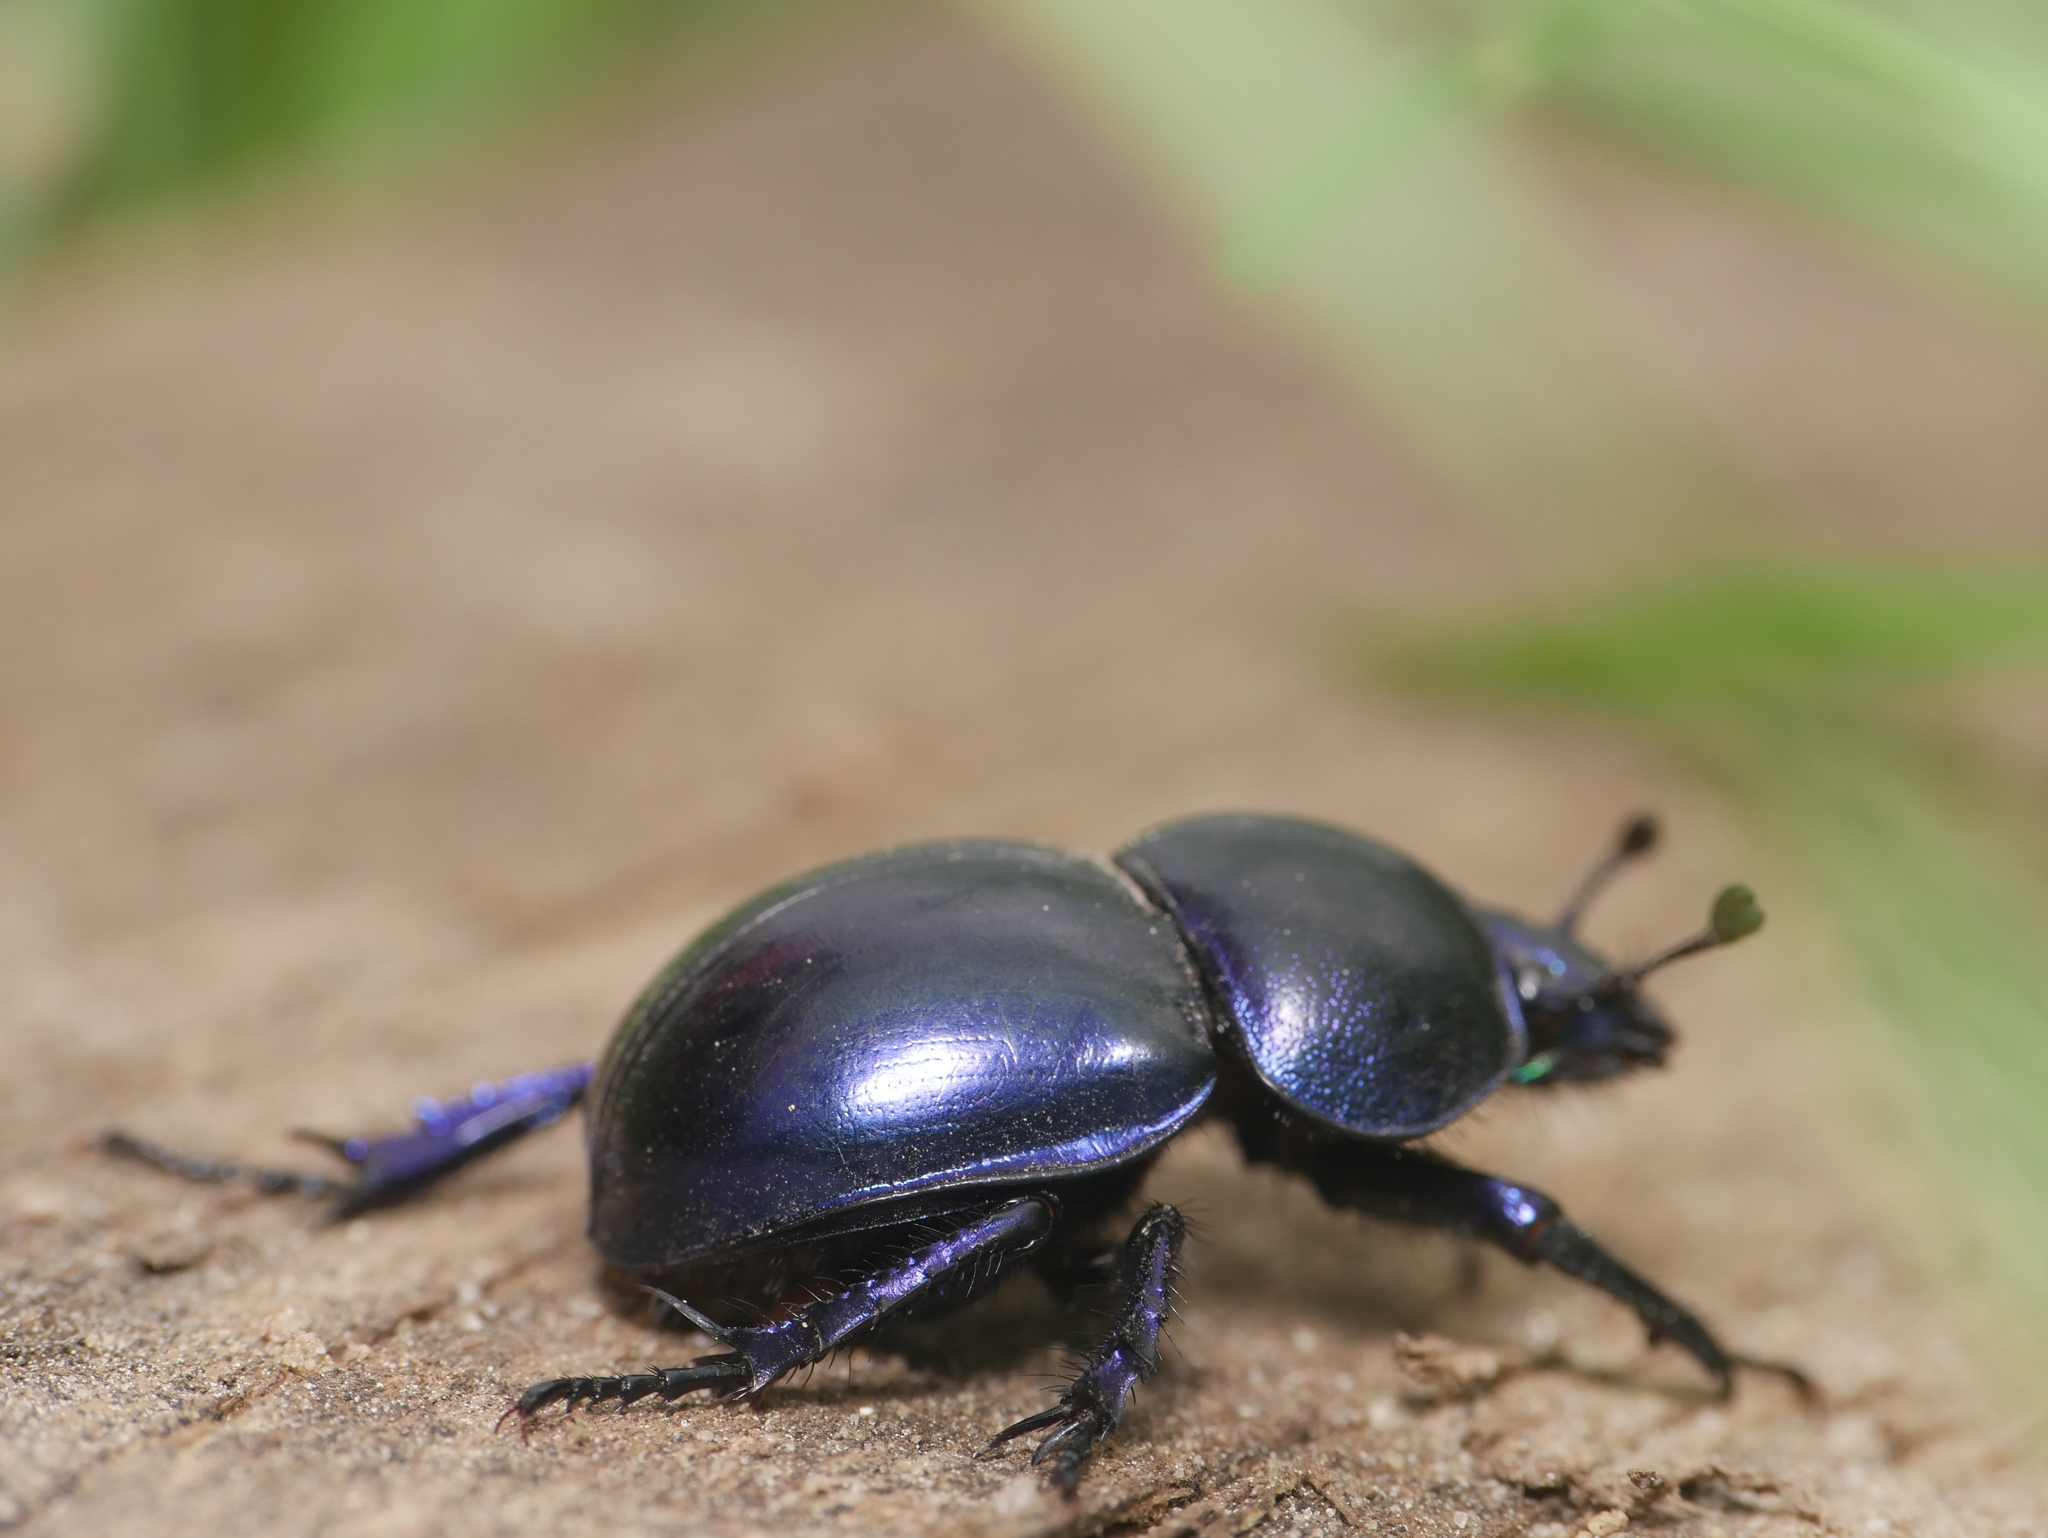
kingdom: Animalia
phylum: Arthropoda
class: Insecta
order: Coleoptera
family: Geotrupidae
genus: Trypocopris
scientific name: Trypocopris vernalis
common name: Spring dumbledor
